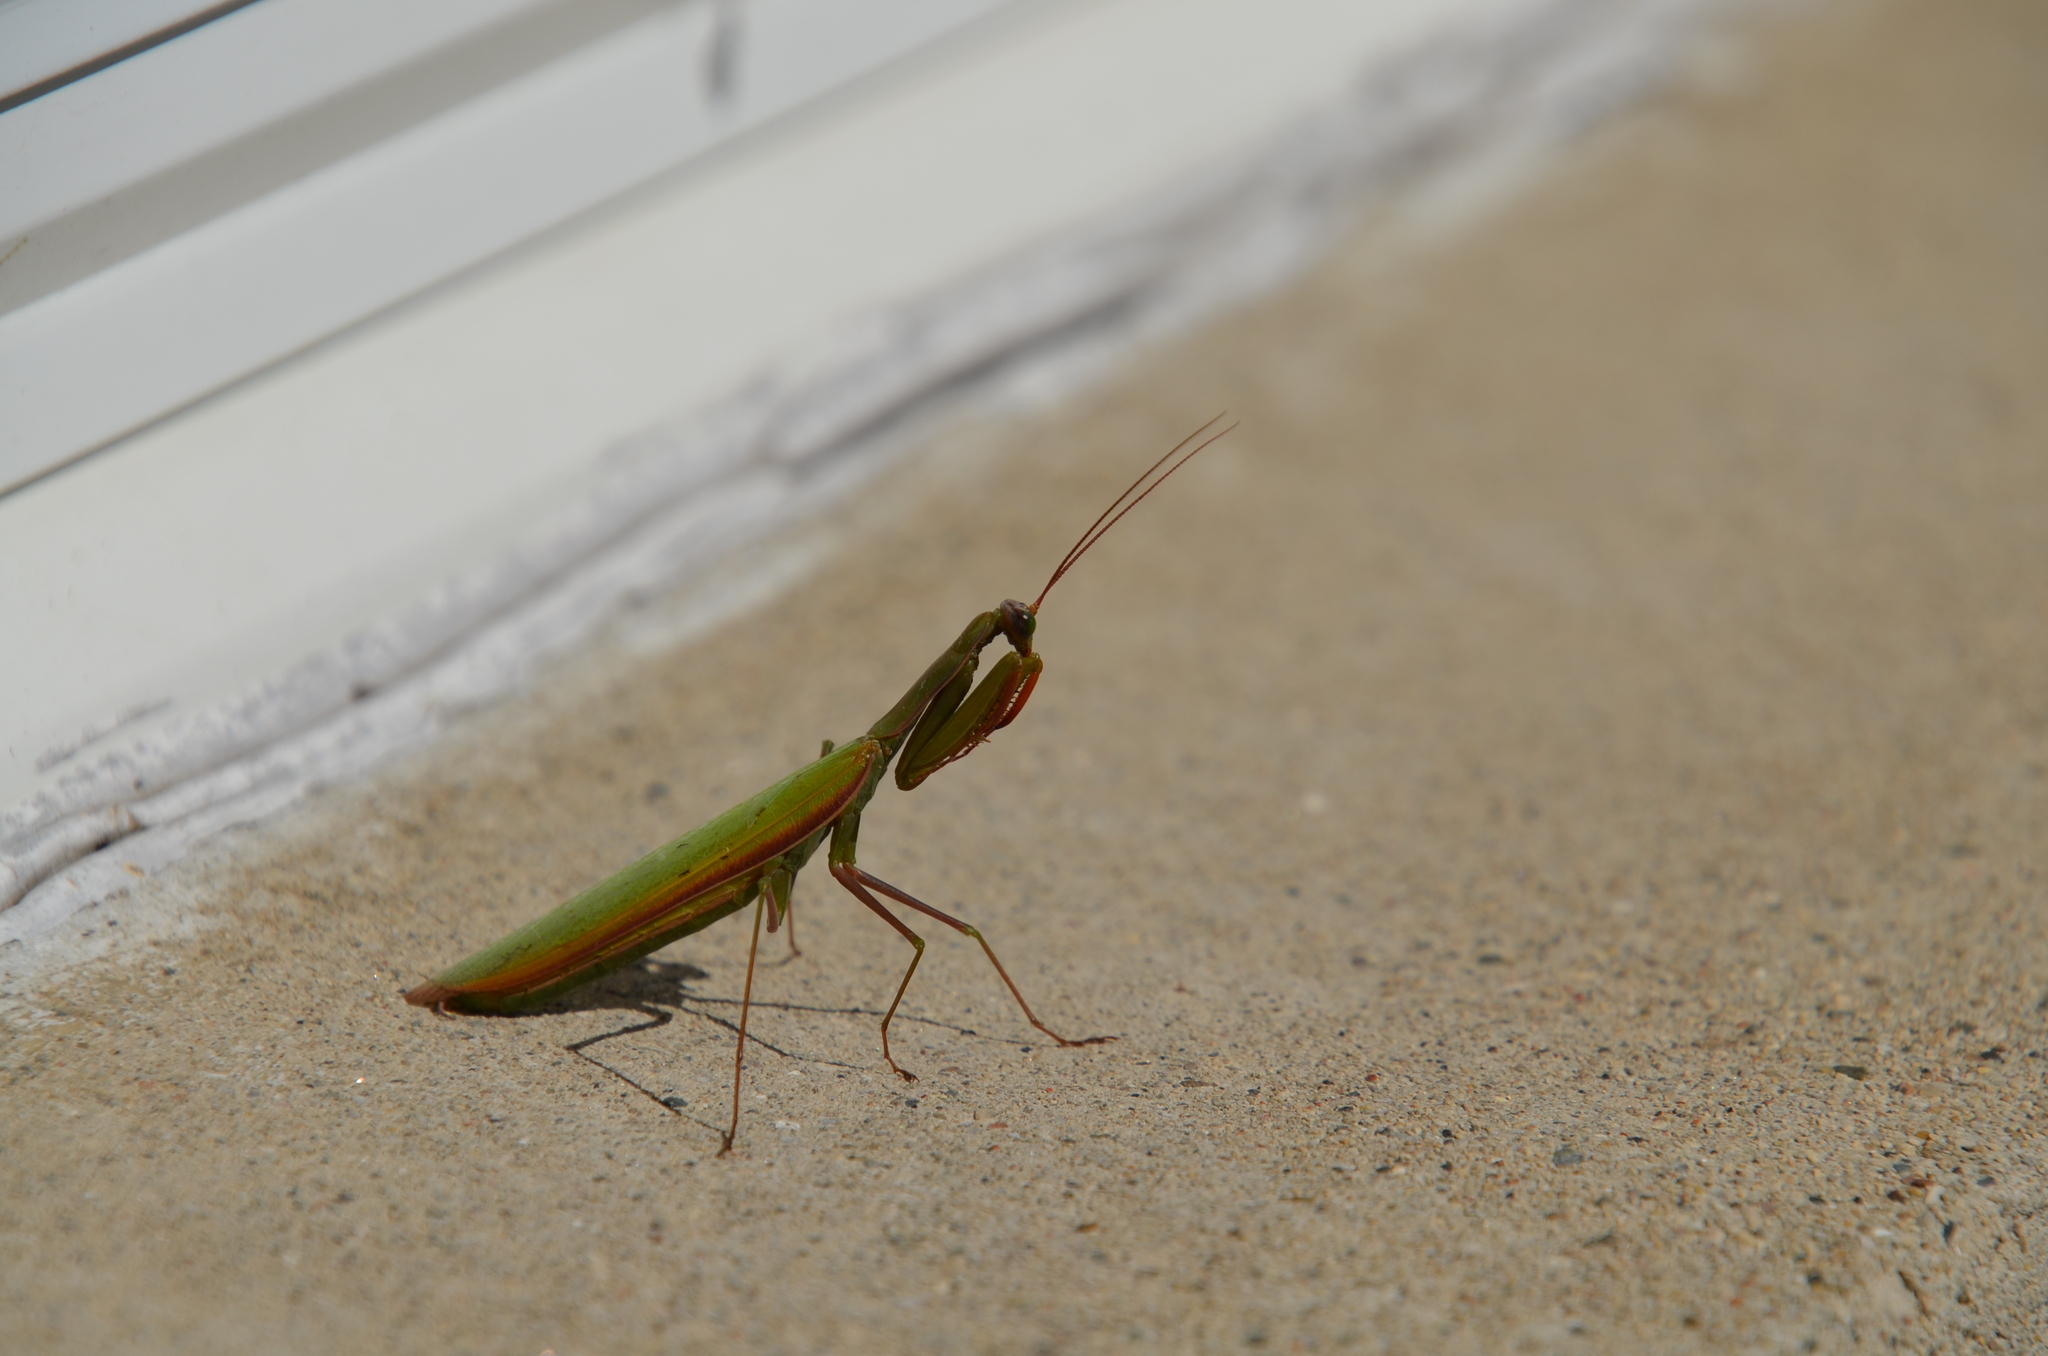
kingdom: Animalia
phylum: Arthropoda
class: Insecta
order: Mantodea
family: Mantidae
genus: Mantis
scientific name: Mantis religiosa
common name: Praying mantis
